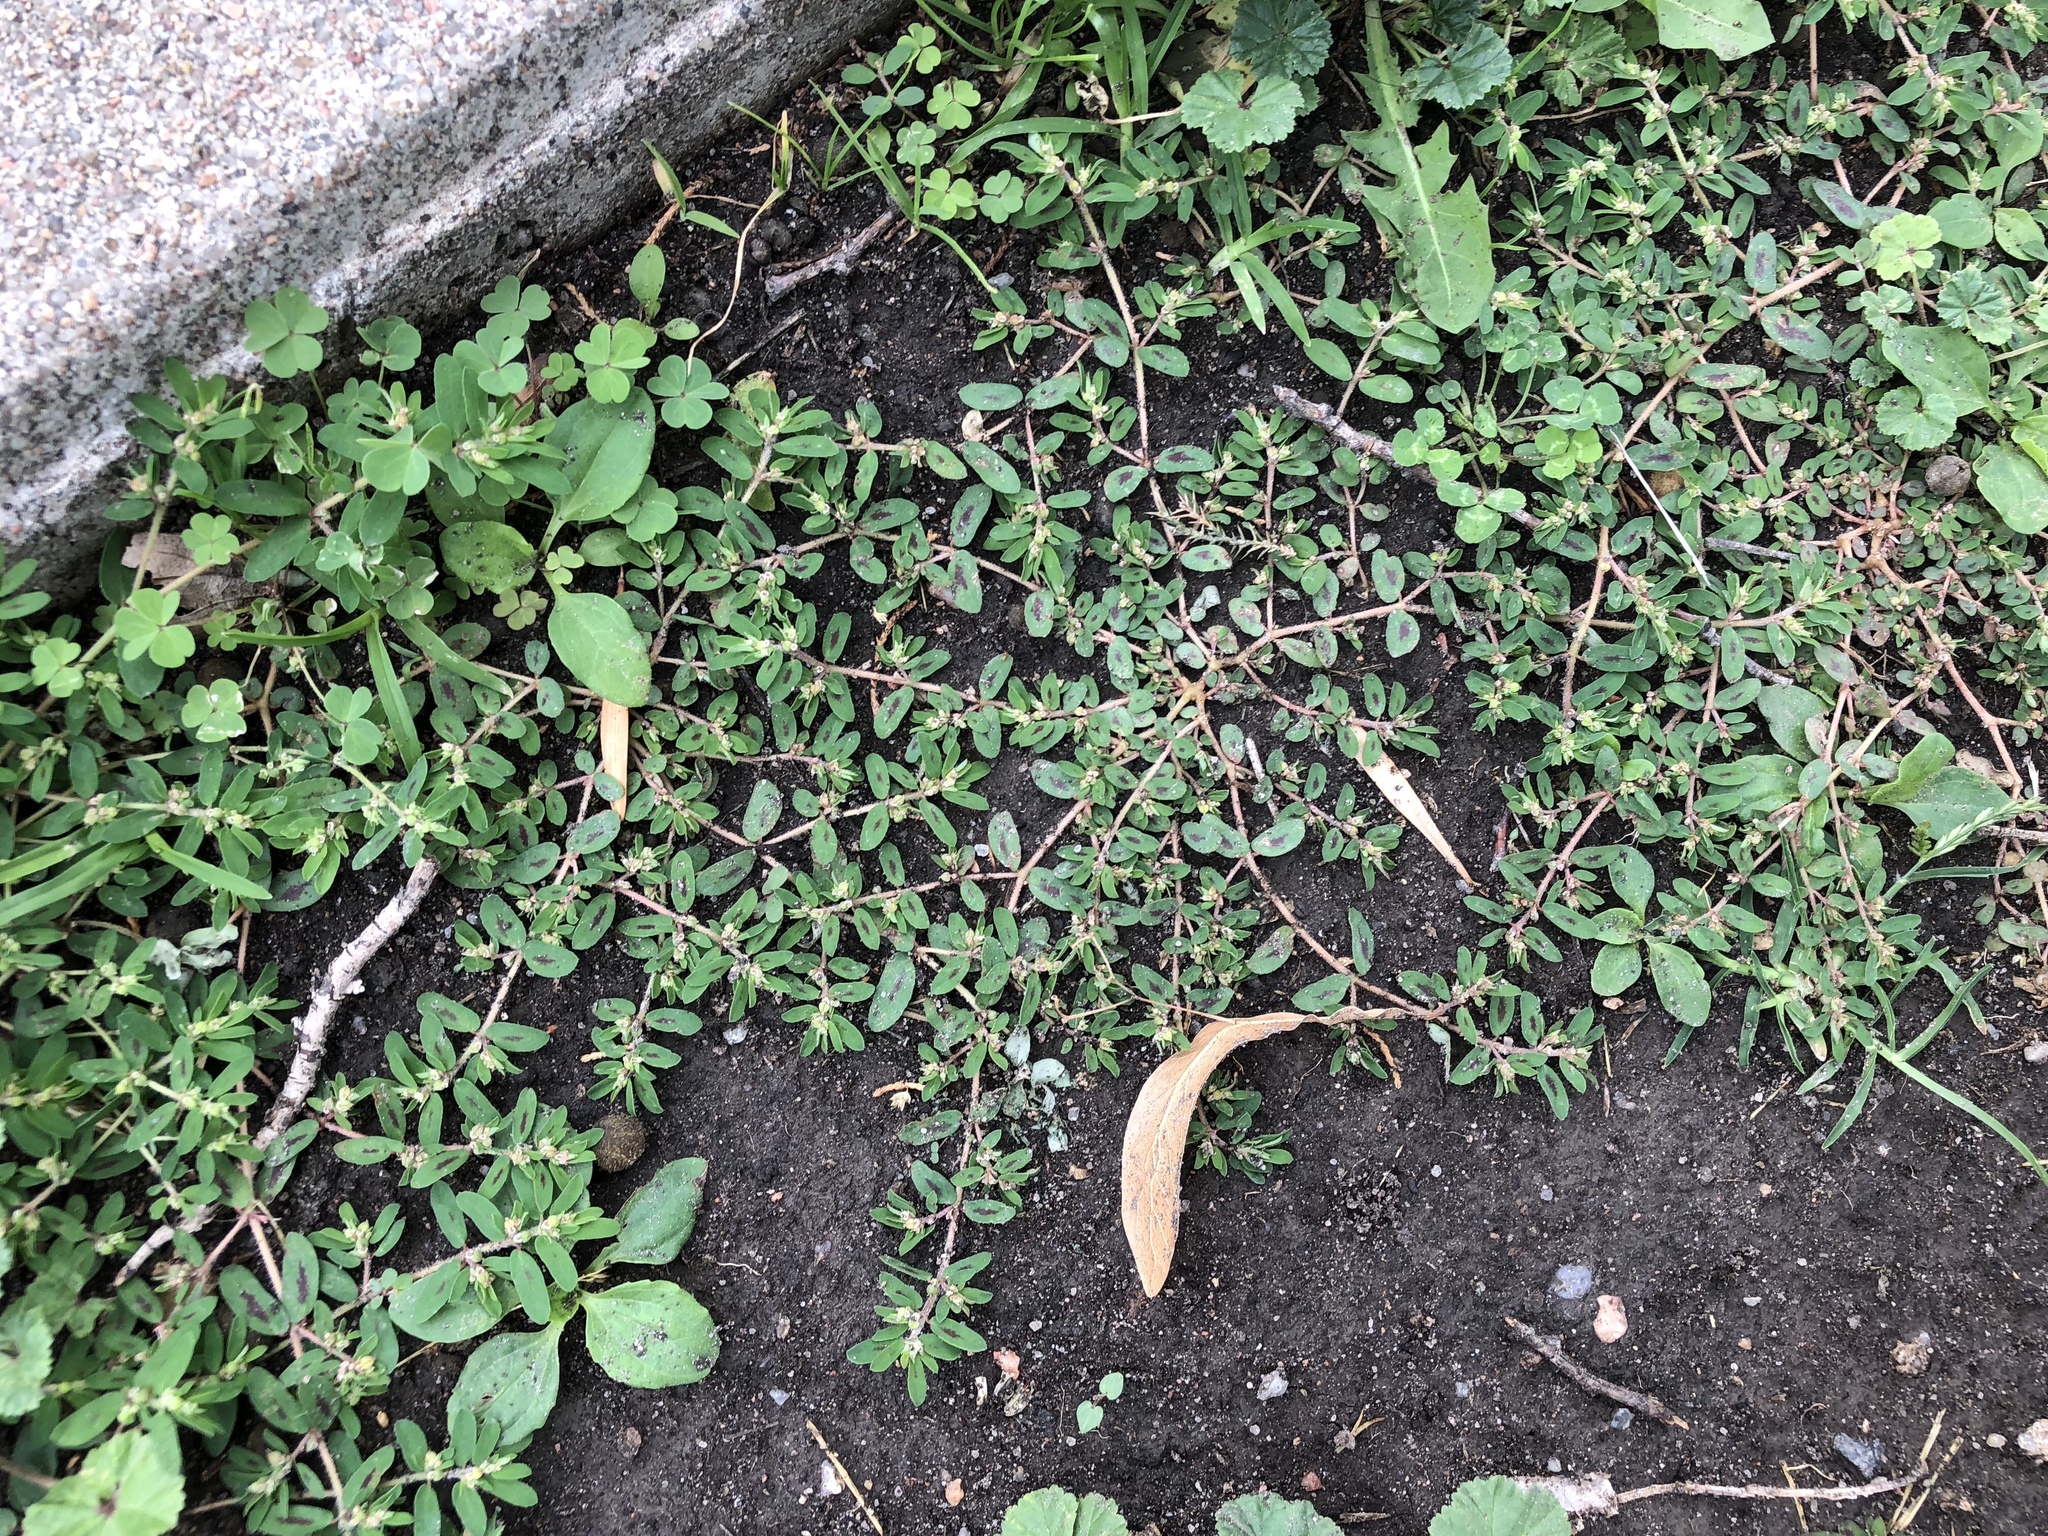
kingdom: Plantae
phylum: Tracheophyta
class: Magnoliopsida
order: Malpighiales
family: Euphorbiaceae
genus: Euphorbia
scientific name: Euphorbia maculata
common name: Spotted spurge
